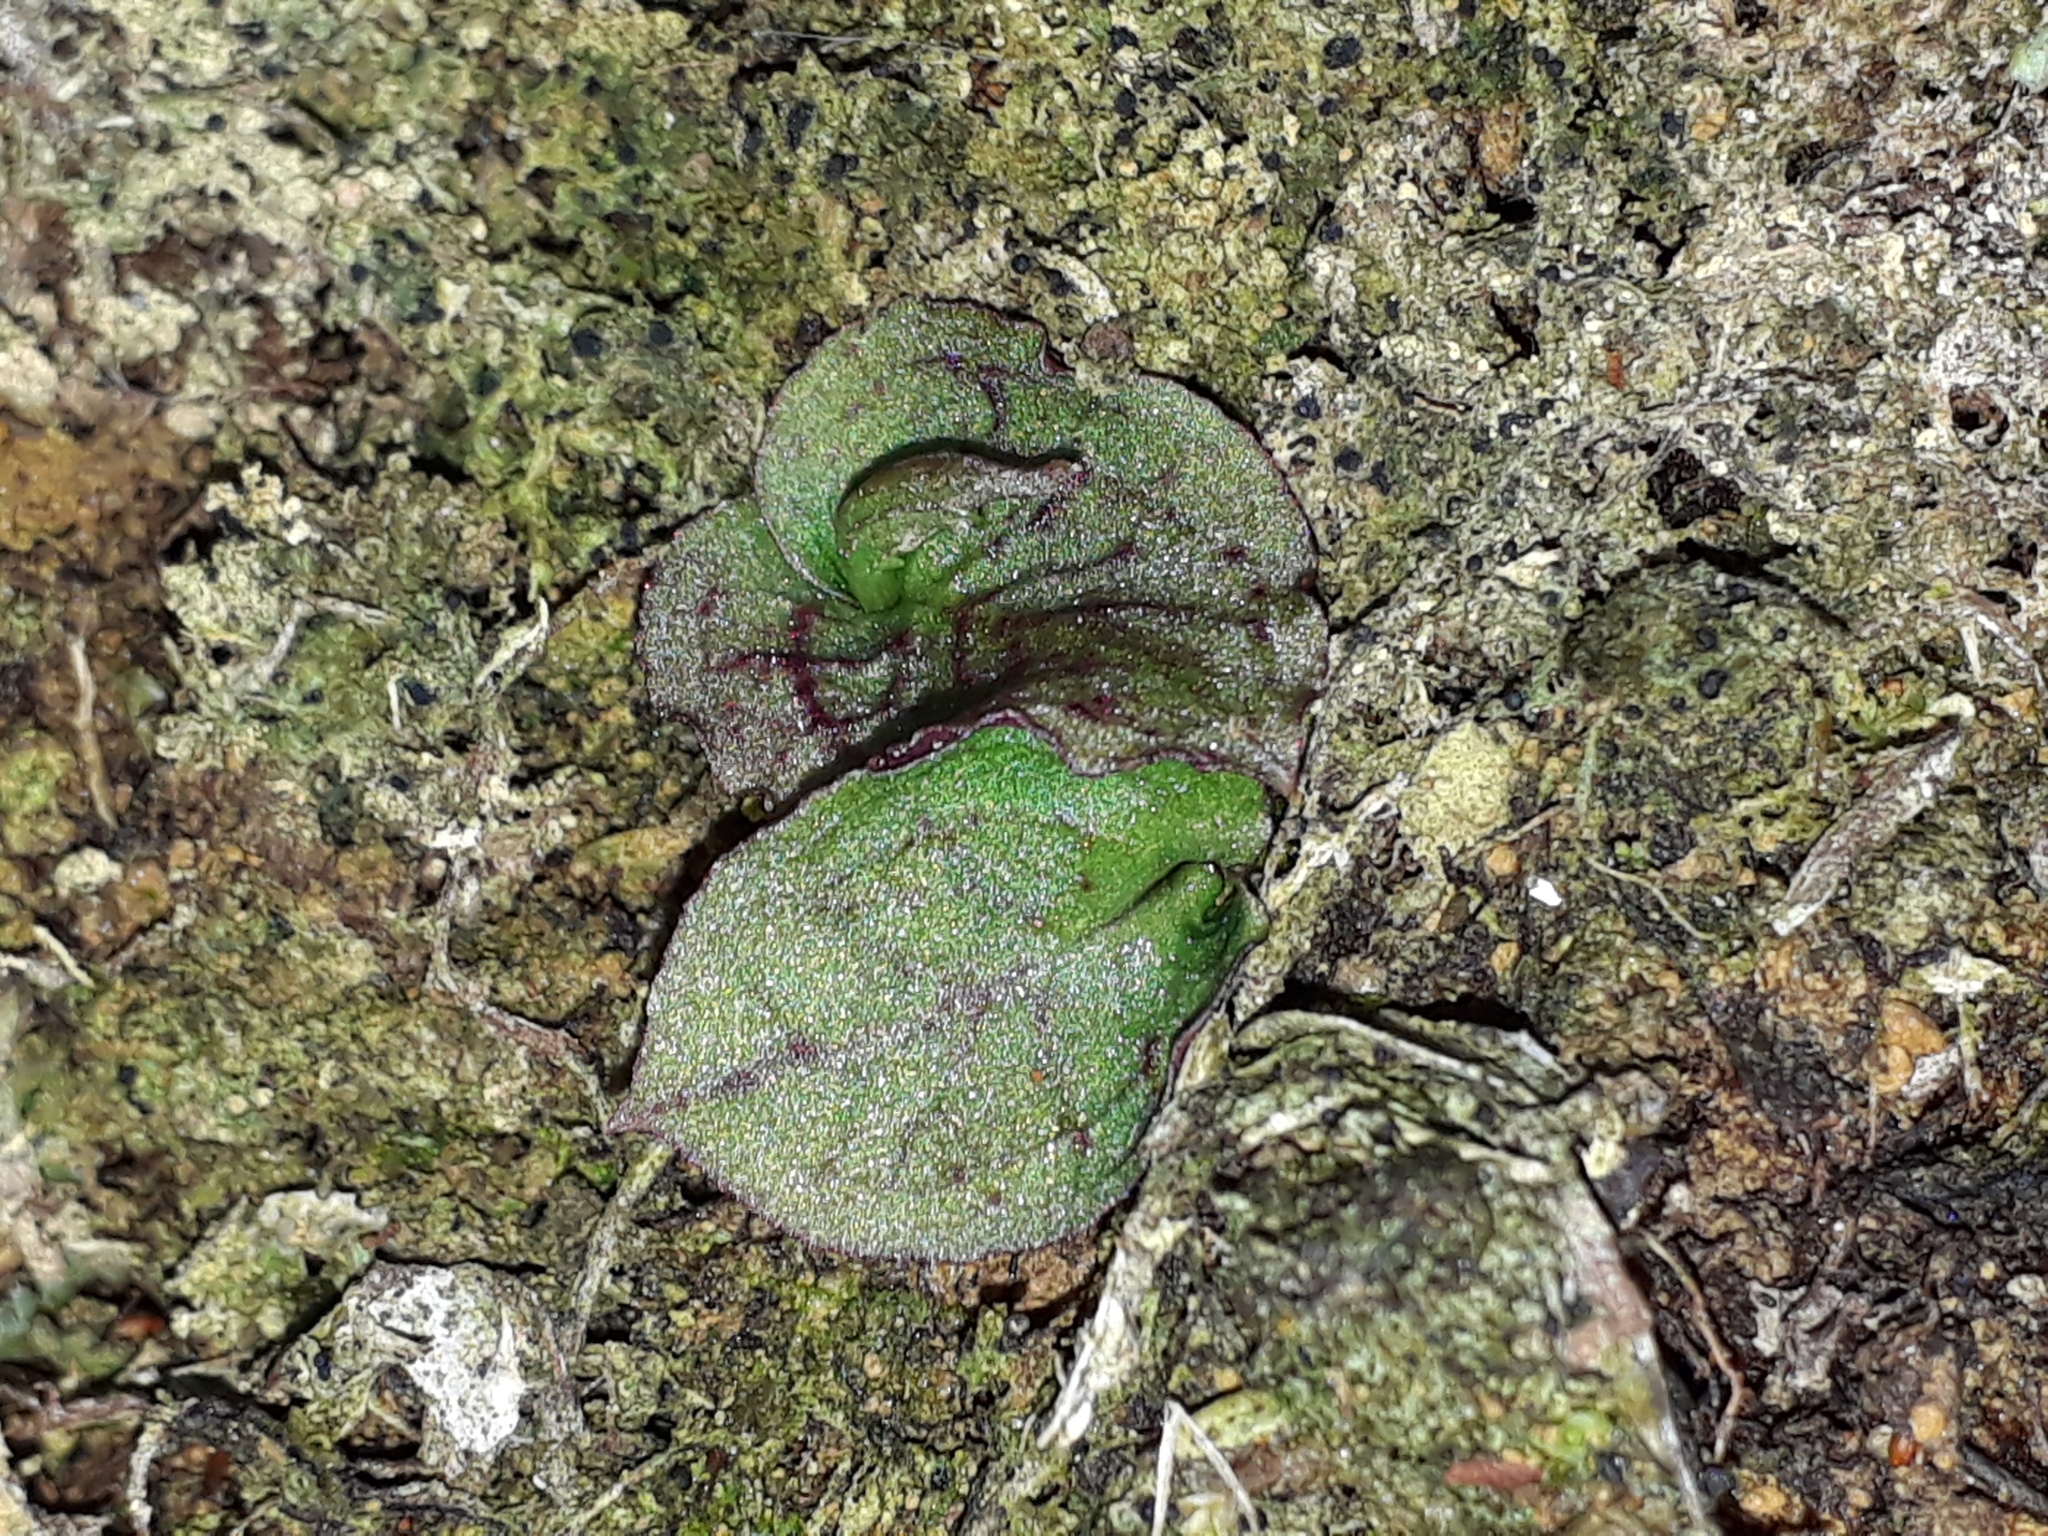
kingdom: Plantae
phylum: Tracheophyta
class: Liliopsida
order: Asparagales
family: Orchidaceae
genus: Corybas
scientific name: Corybas oblongus
